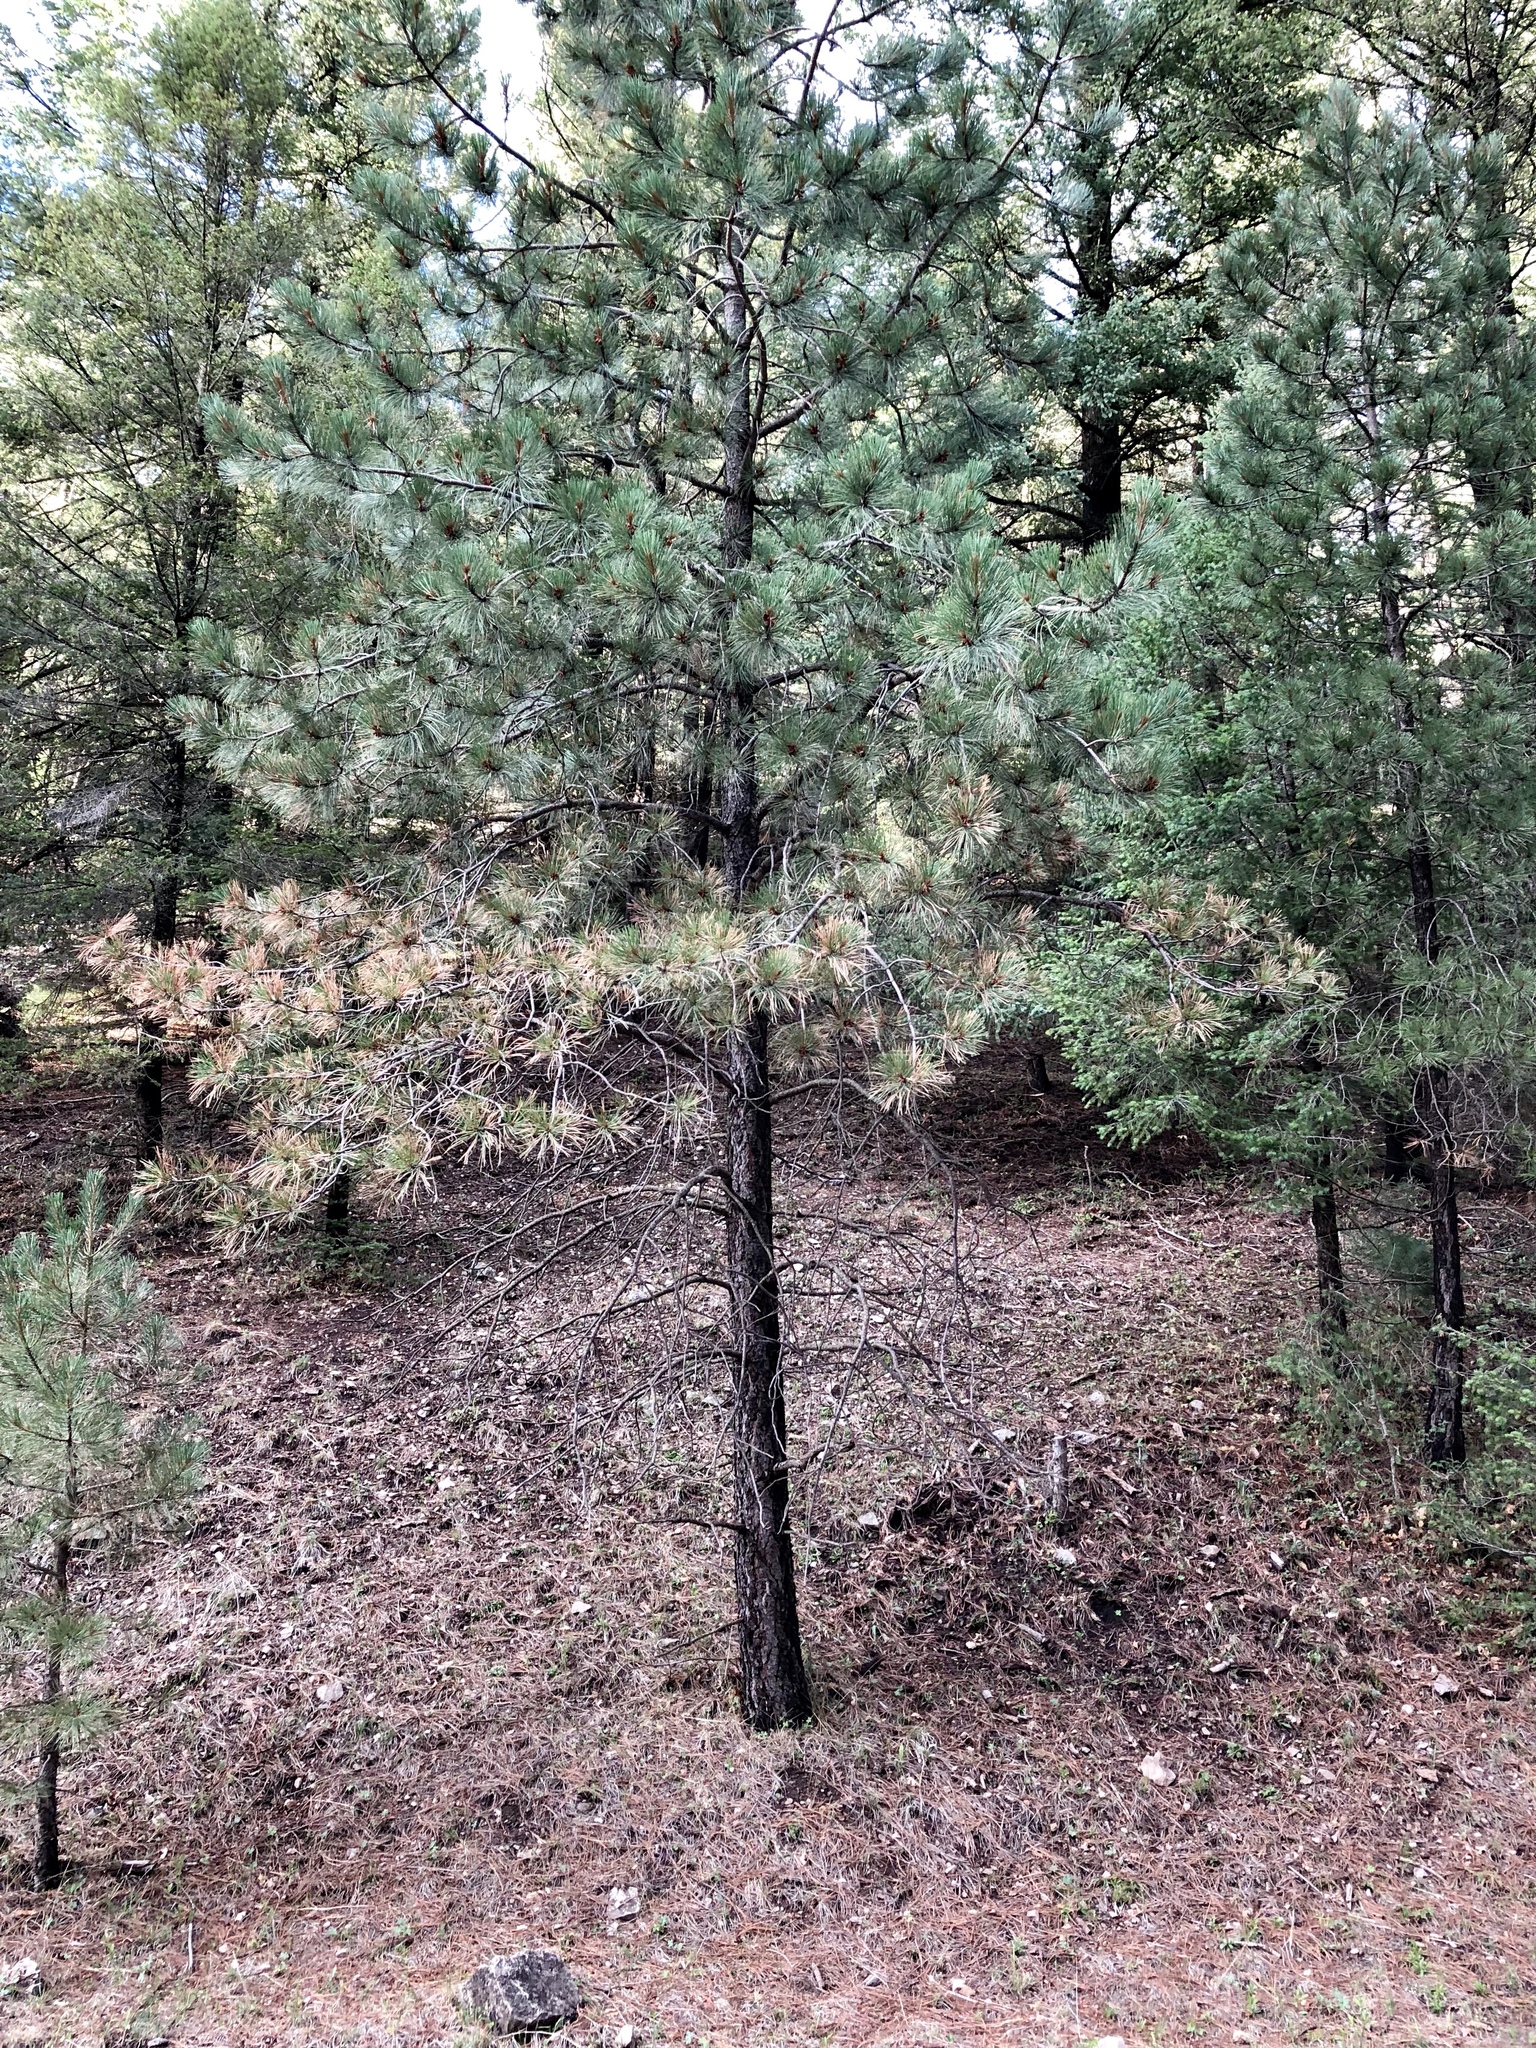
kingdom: Plantae
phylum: Tracheophyta
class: Pinopsida
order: Pinales
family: Pinaceae
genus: Pinus
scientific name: Pinus ponderosa
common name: Western yellow-pine
